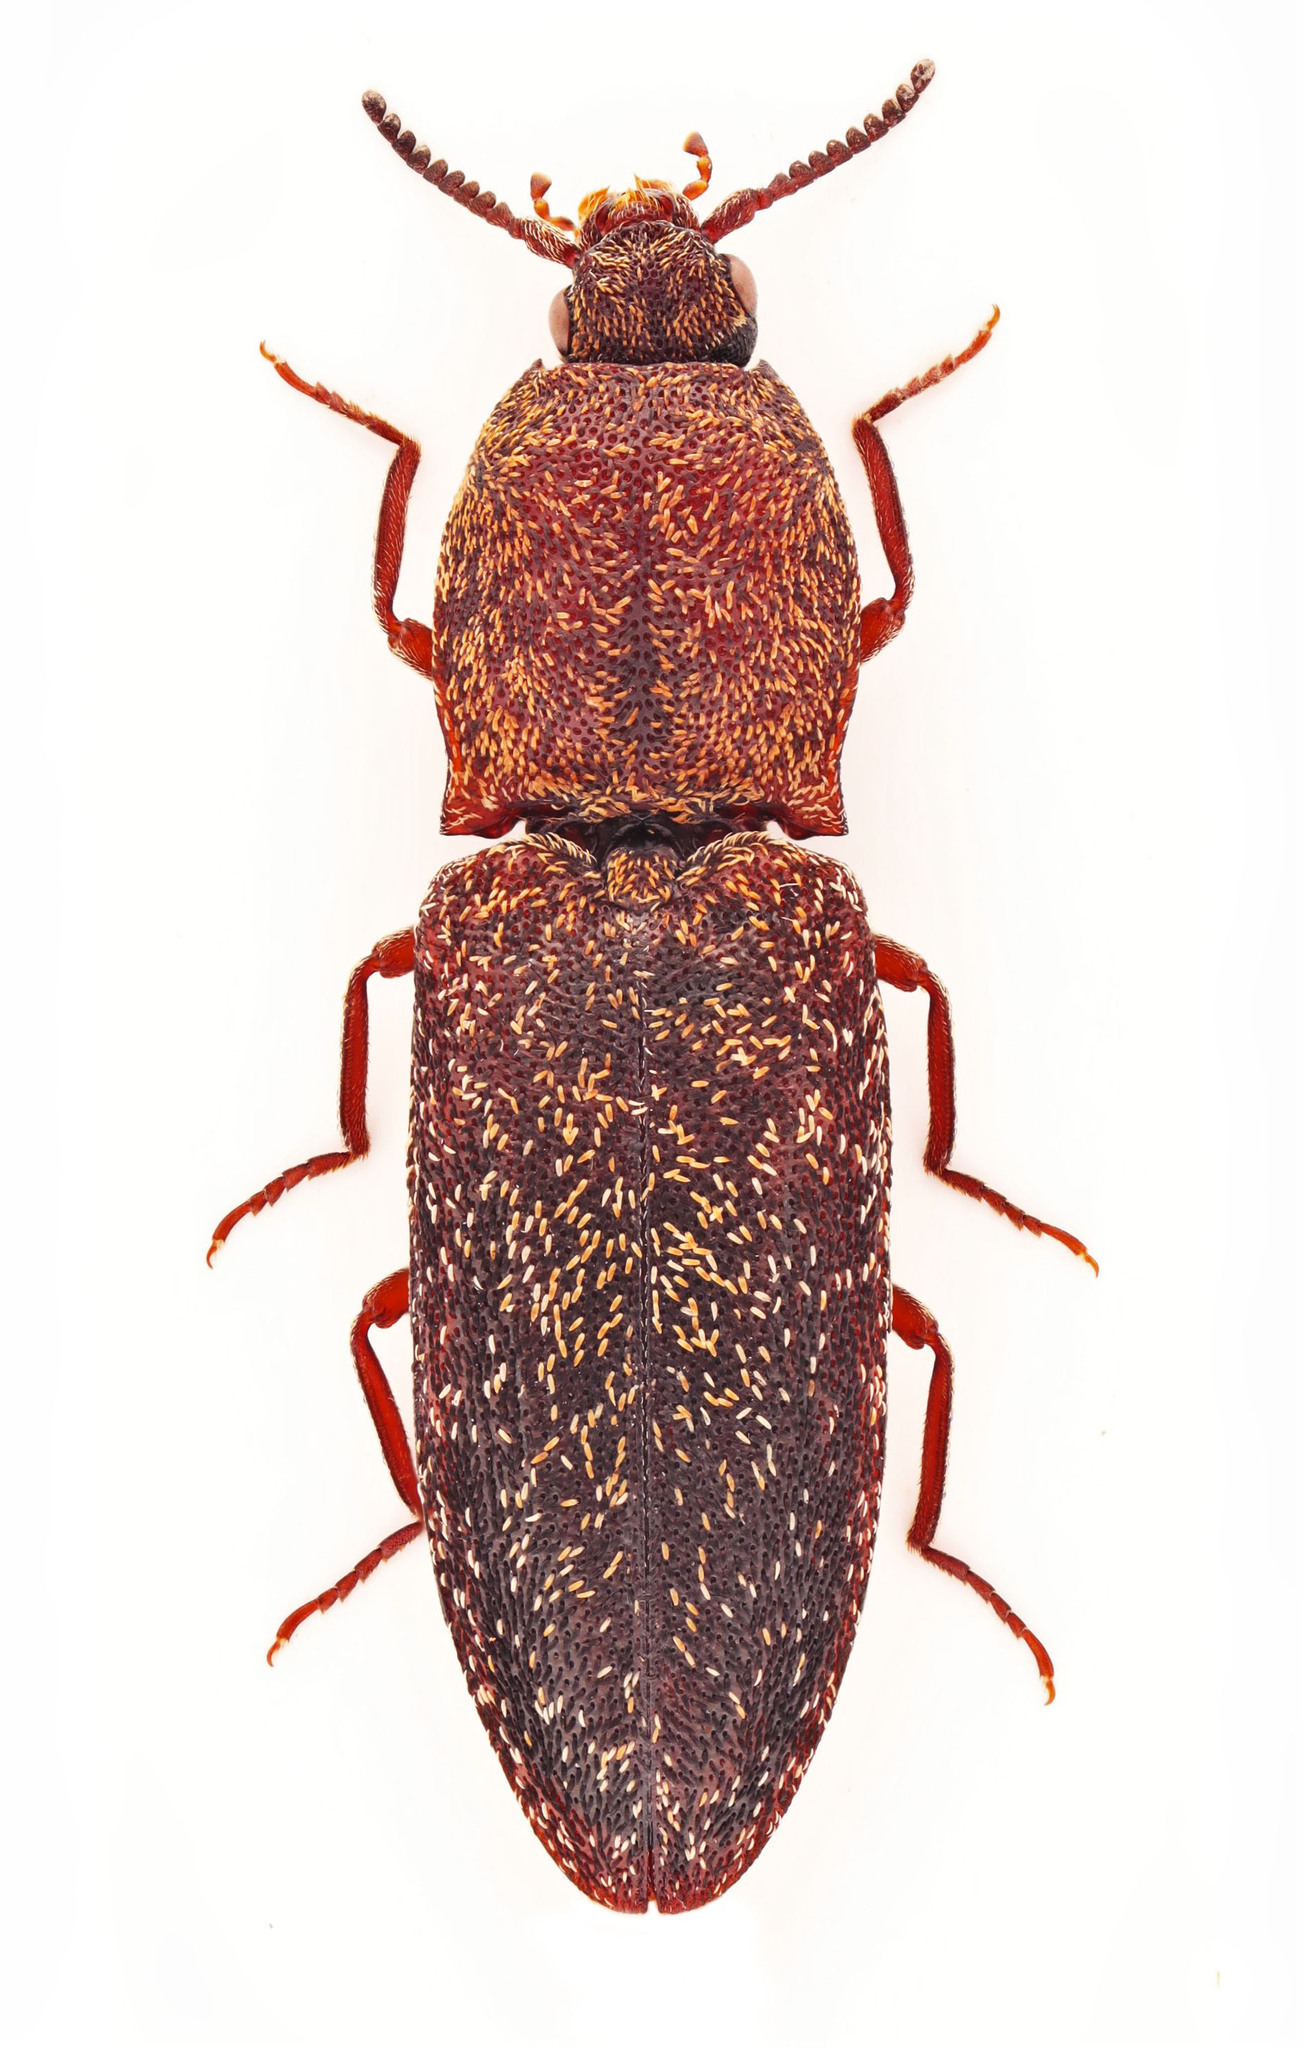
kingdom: Animalia
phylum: Arthropoda
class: Insecta
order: Coleoptera
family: Elateridae
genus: Lacon
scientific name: Lacon auroratus
